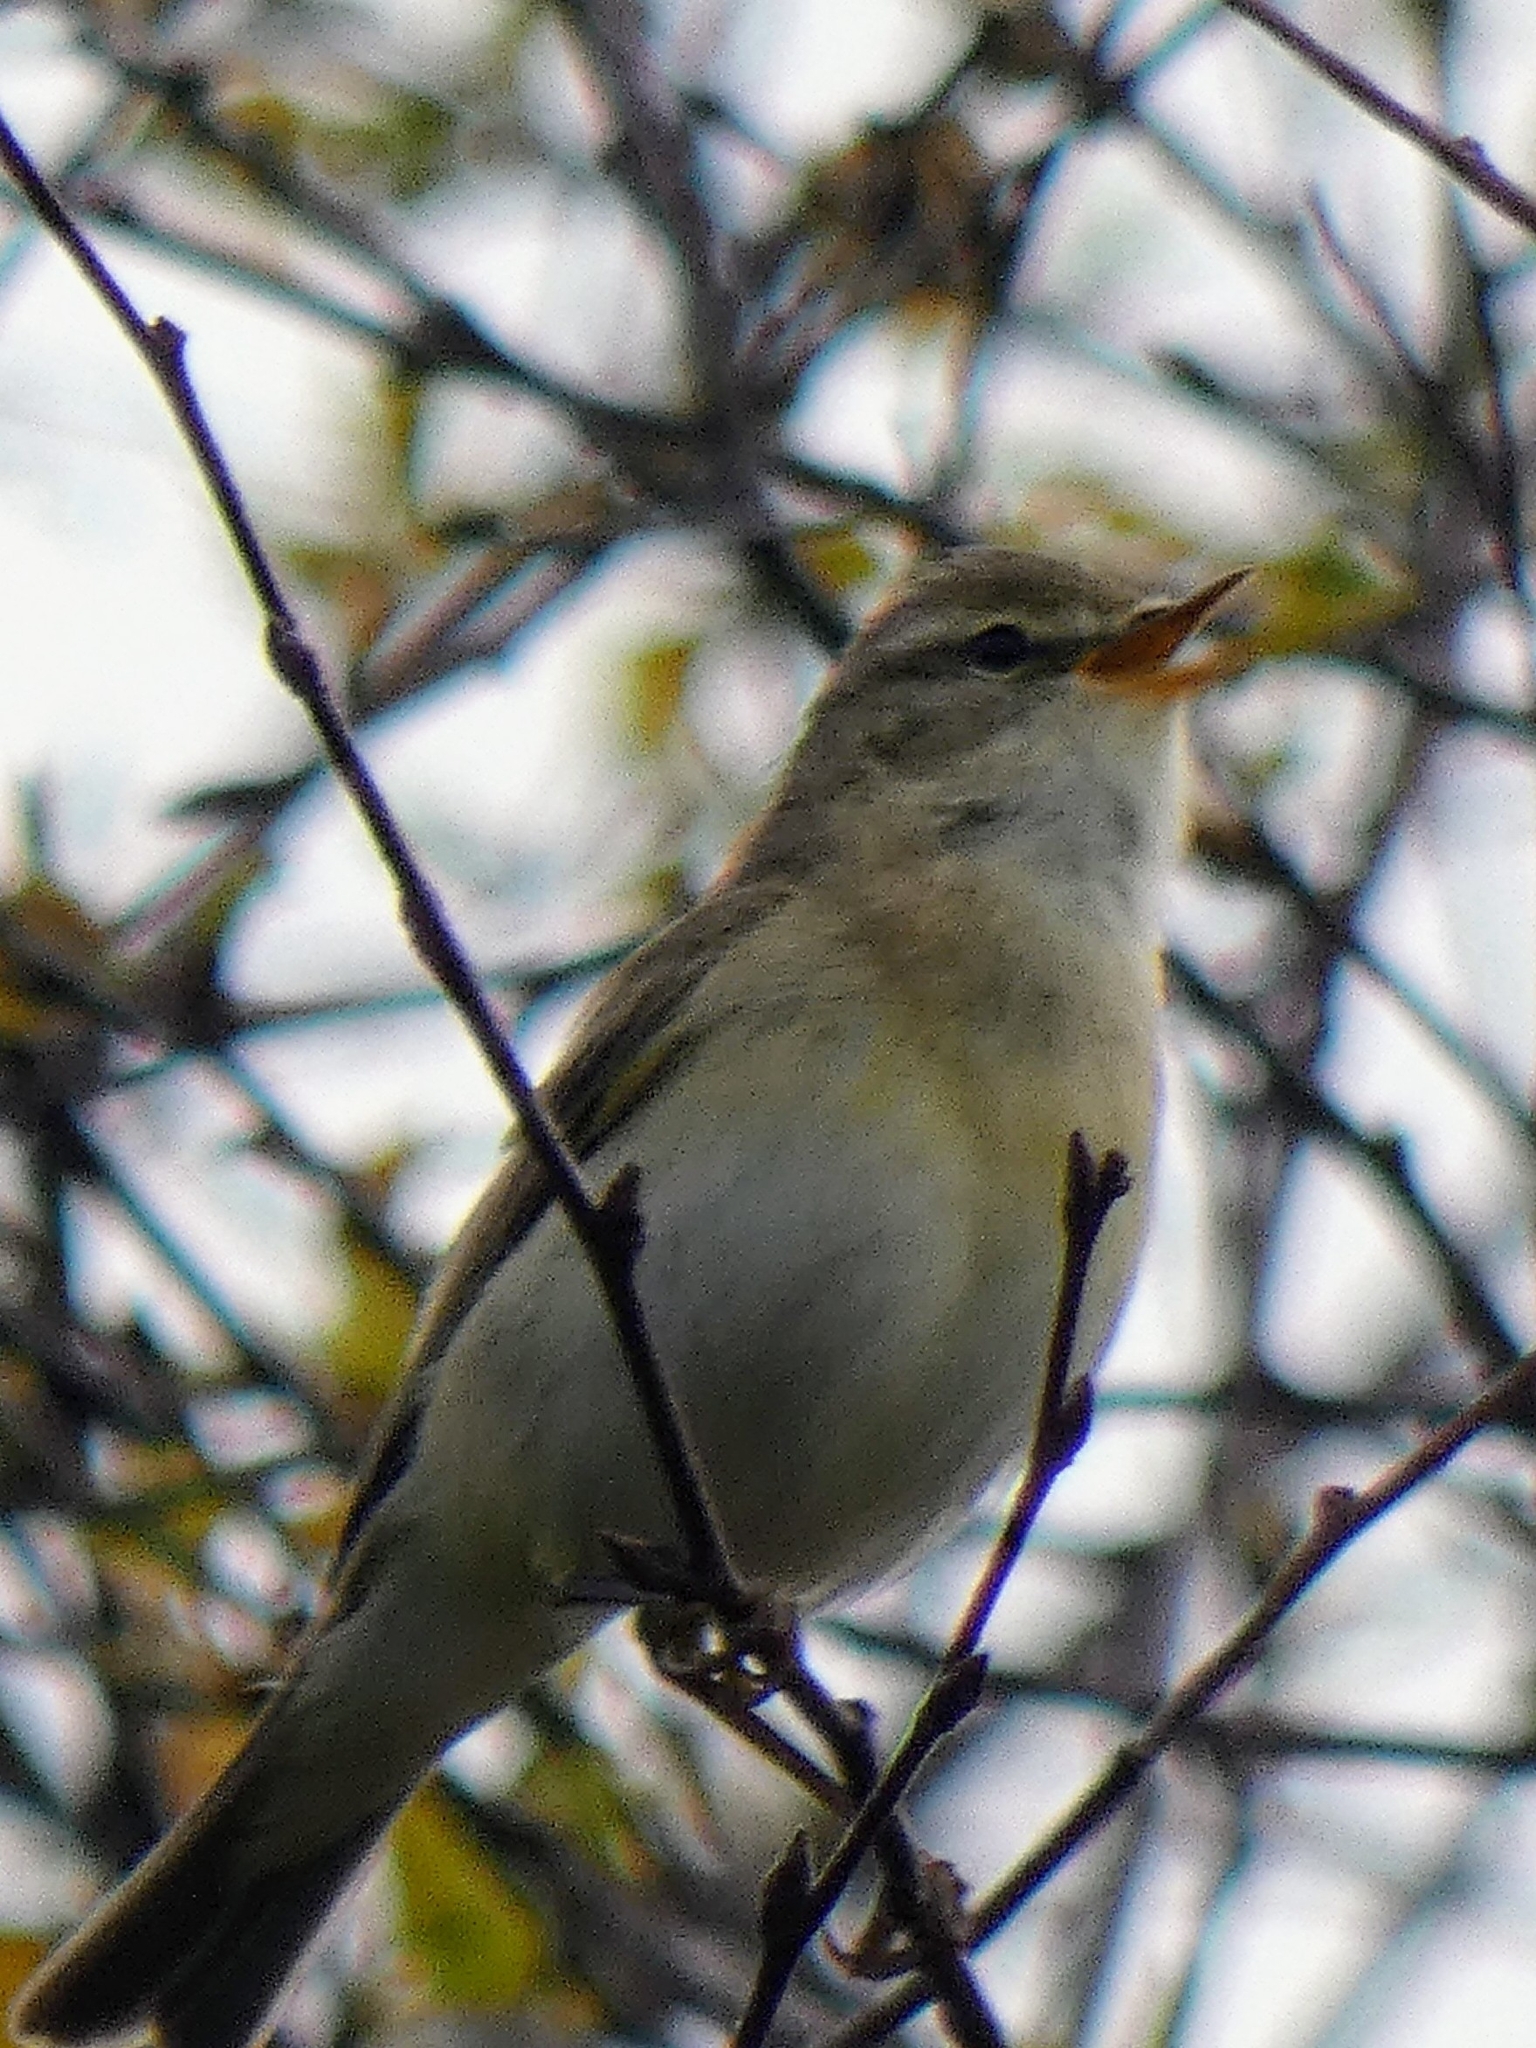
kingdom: Animalia
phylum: Chordata
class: Aves
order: Passeriformes
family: Phylloscopidae
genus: Phylloscopus
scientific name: Phylloscopus trochilus
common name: Willow warbler
